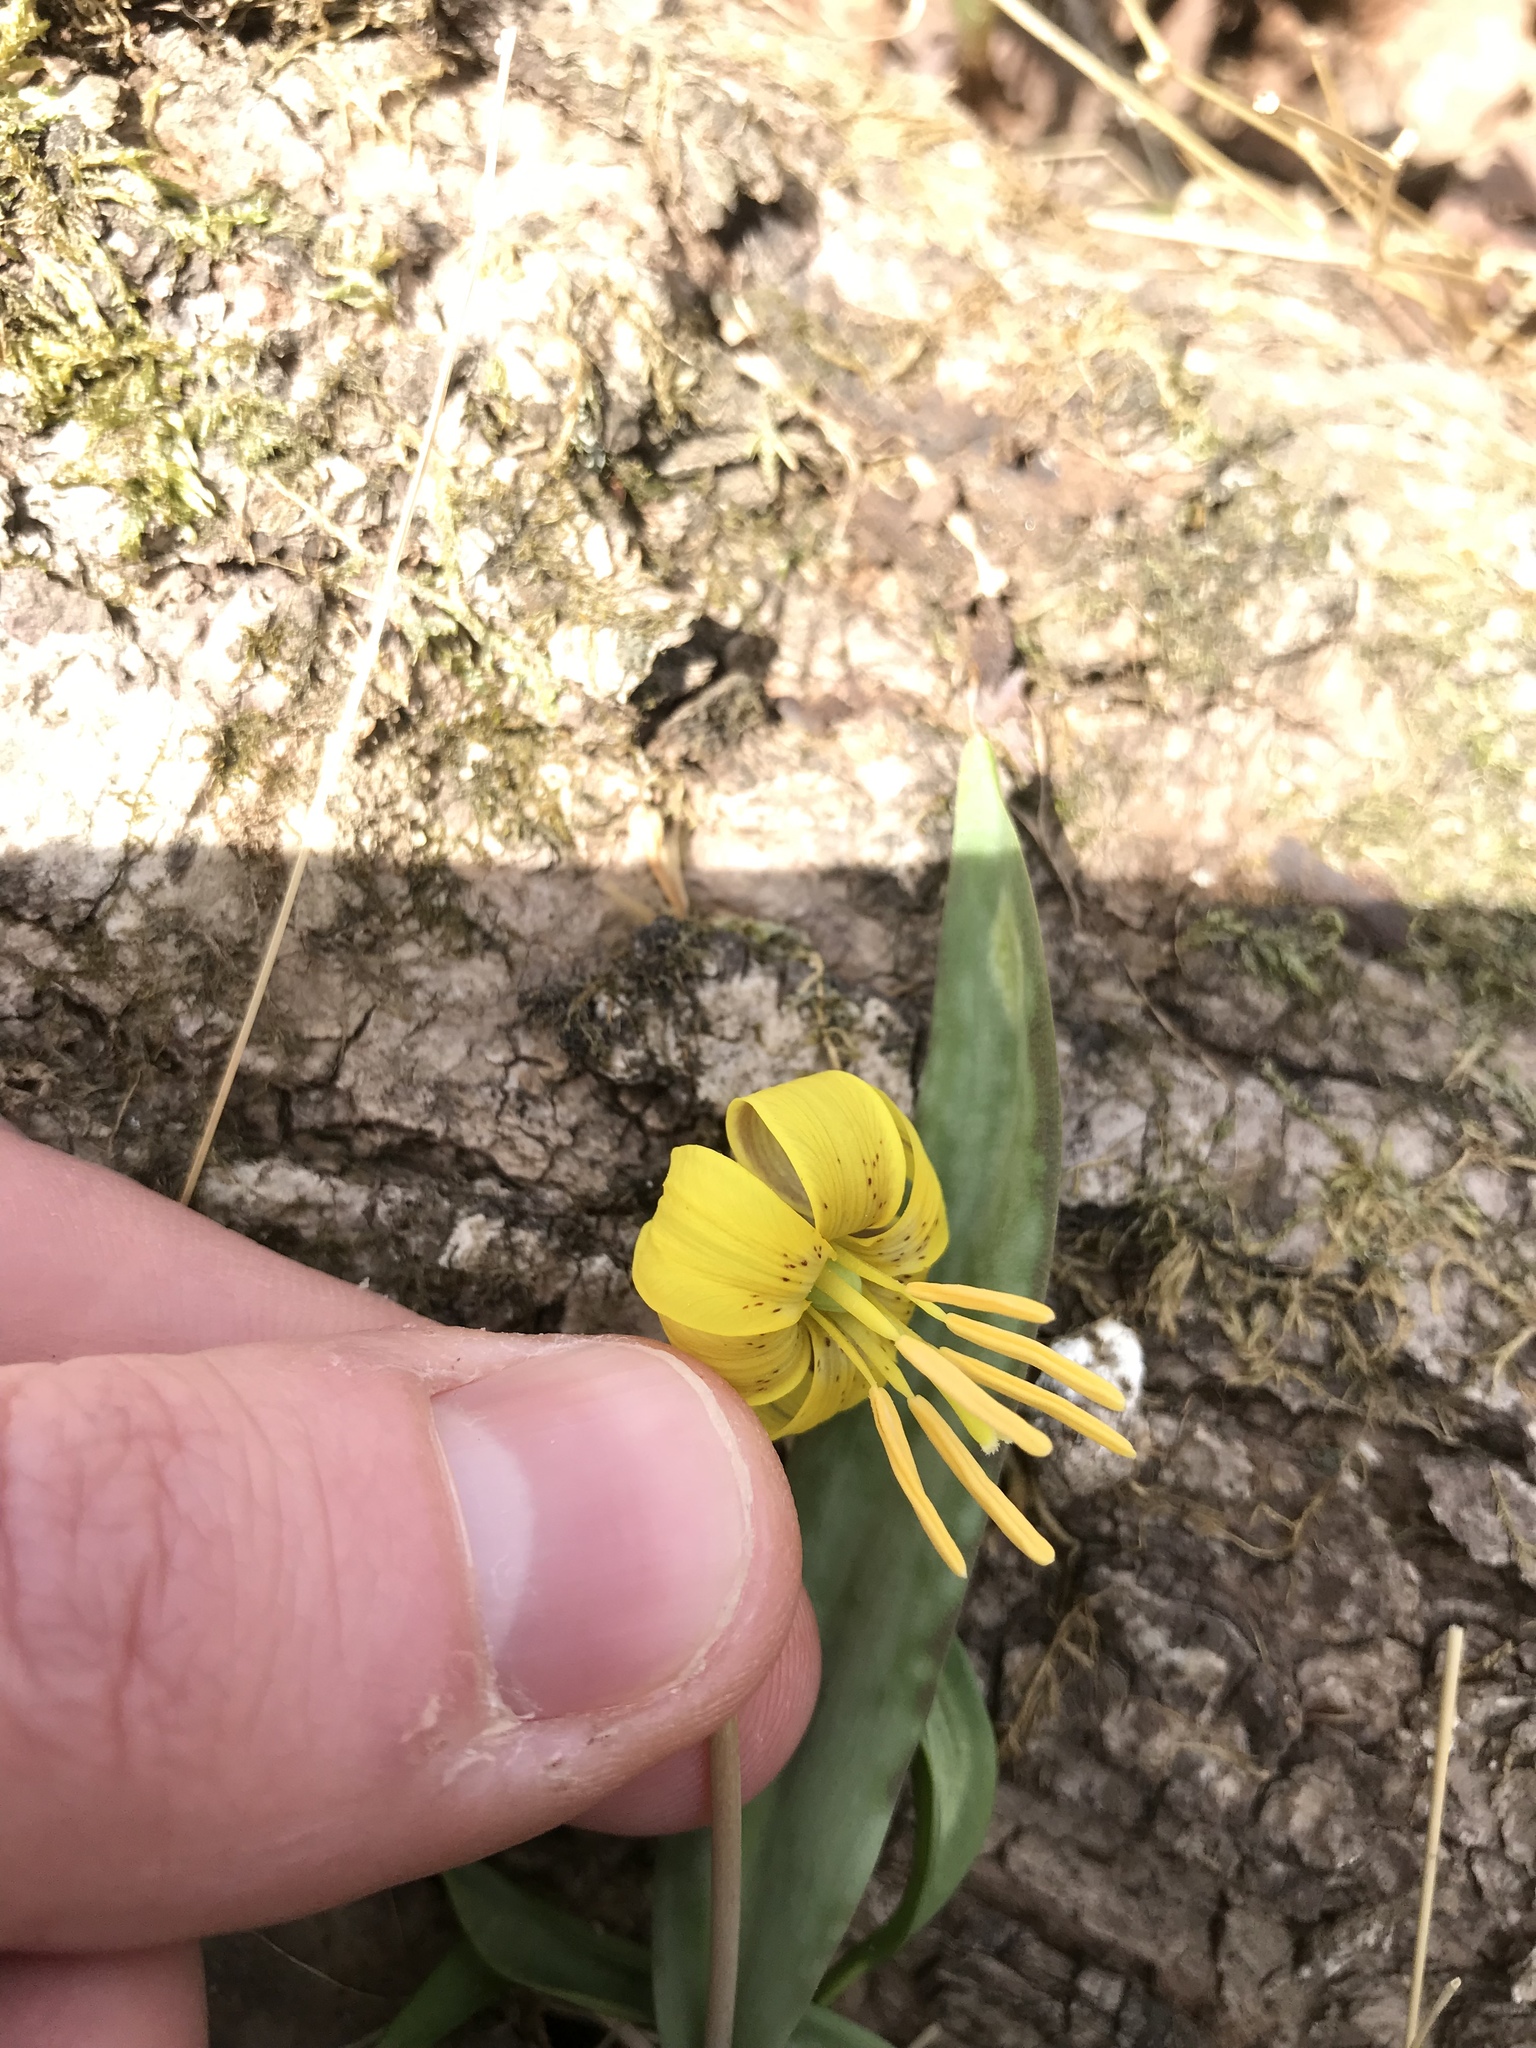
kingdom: Plantae
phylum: Tracheophyta
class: Liliopsida
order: Liliales
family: Liliaceae
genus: Erythronium
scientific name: Erythronium americanum
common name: Yellow adder's-tongue
